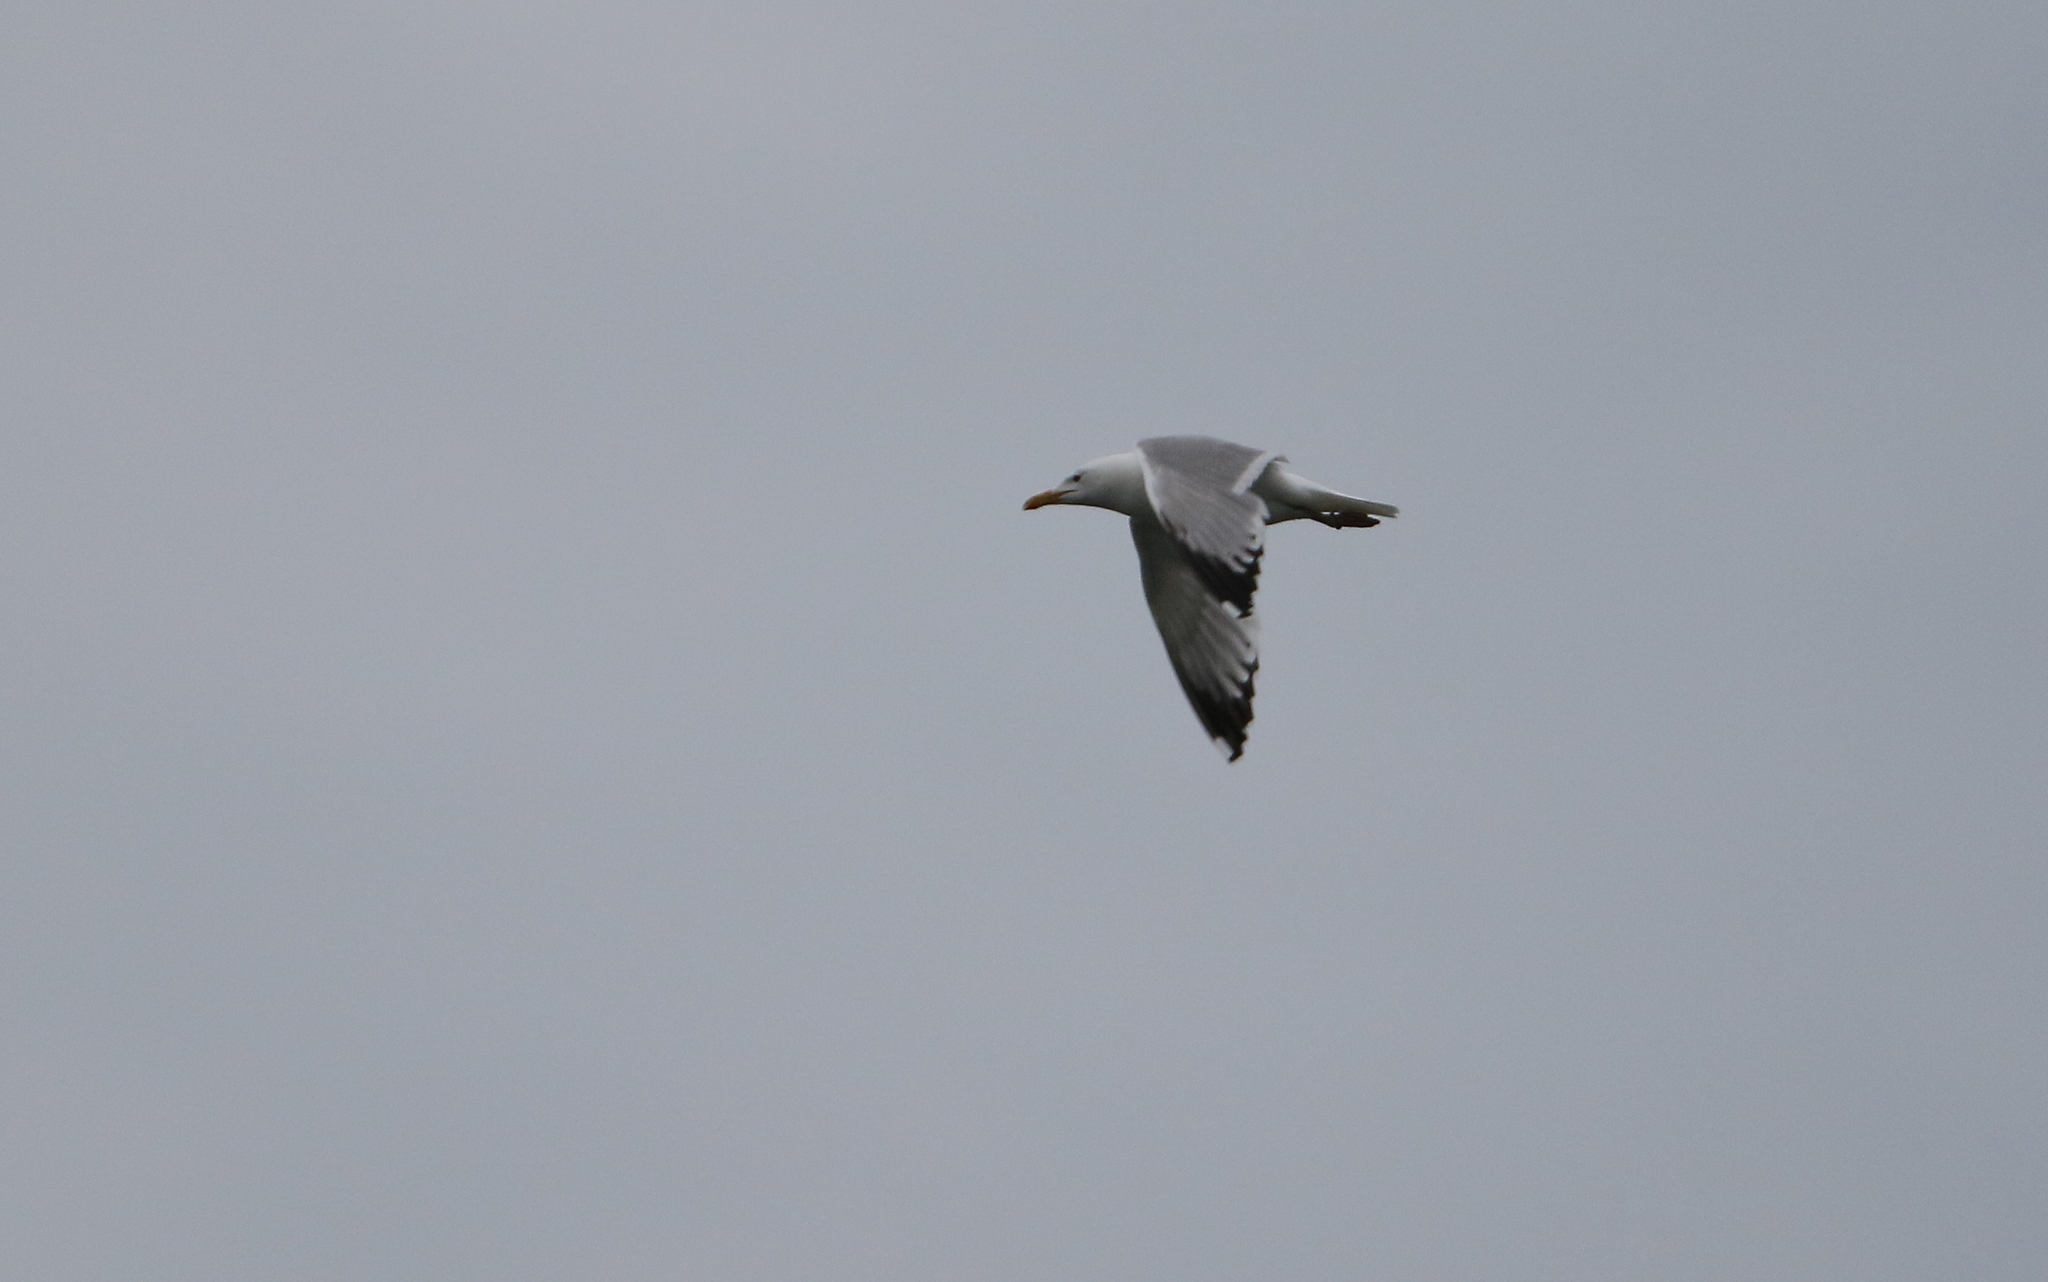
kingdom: Animalia
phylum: Chordata
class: Aves
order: Charadriiformes
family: Laridae
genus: Larus
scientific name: Larus cachinnans
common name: Caspian gull
